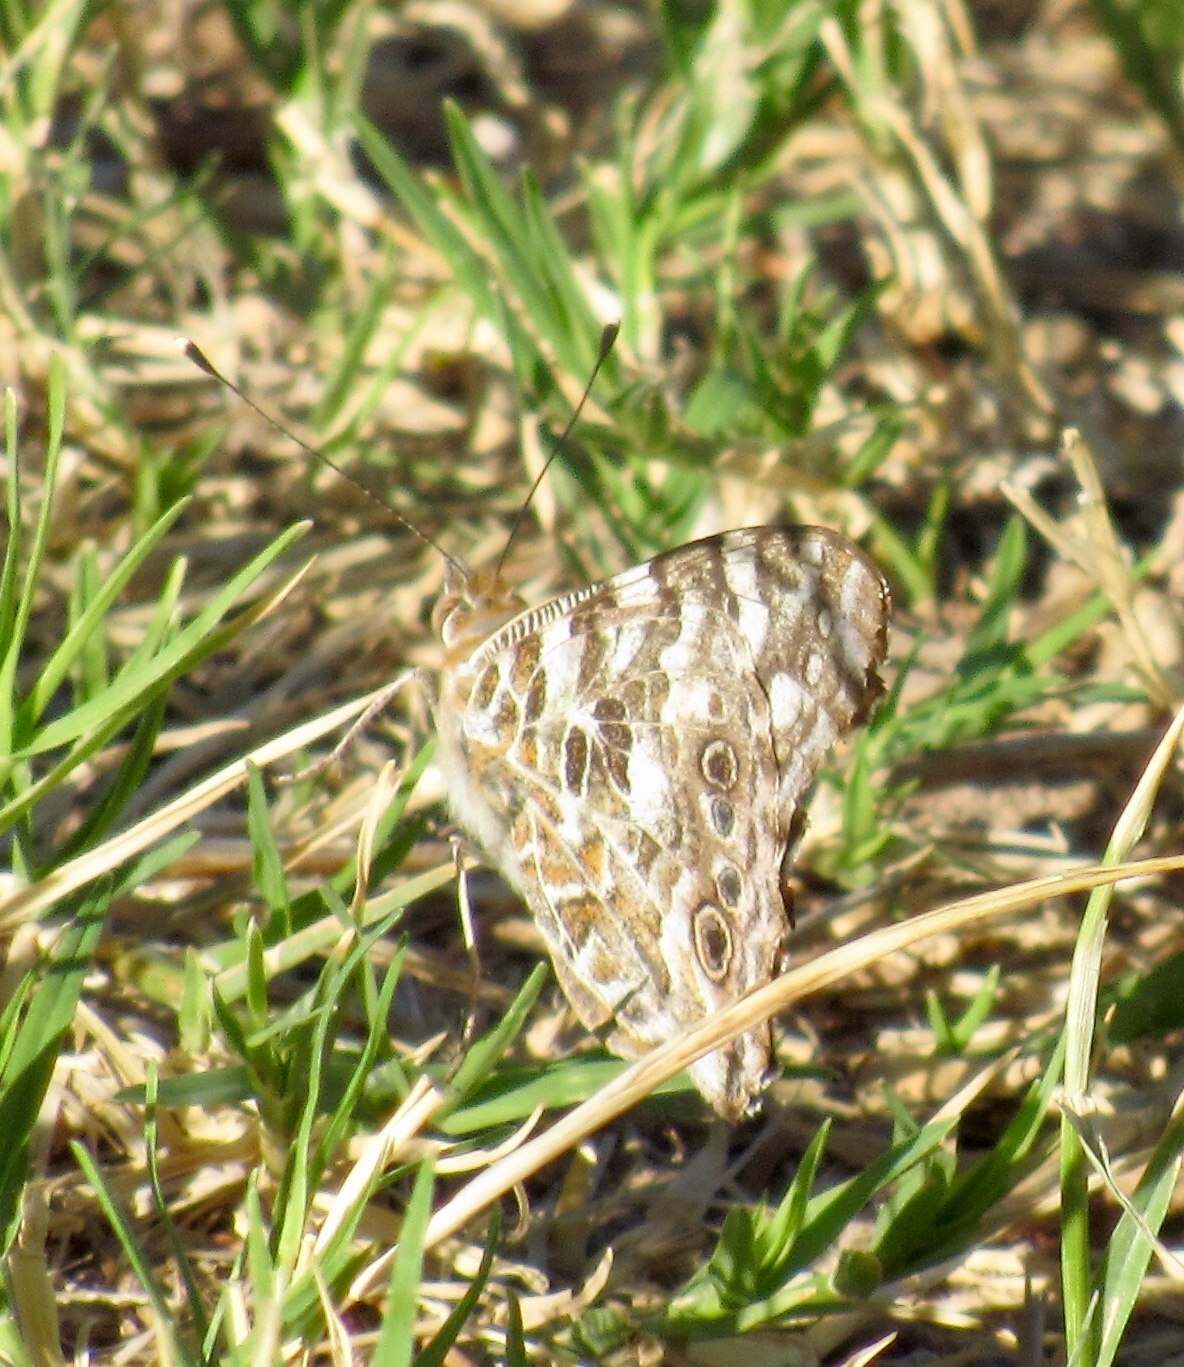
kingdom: Animalia
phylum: Arthropoda
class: Insecta
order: Lepidoptera
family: Nymphalidae
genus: Vanessa
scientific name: Vanessa cardui
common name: Painted lady
